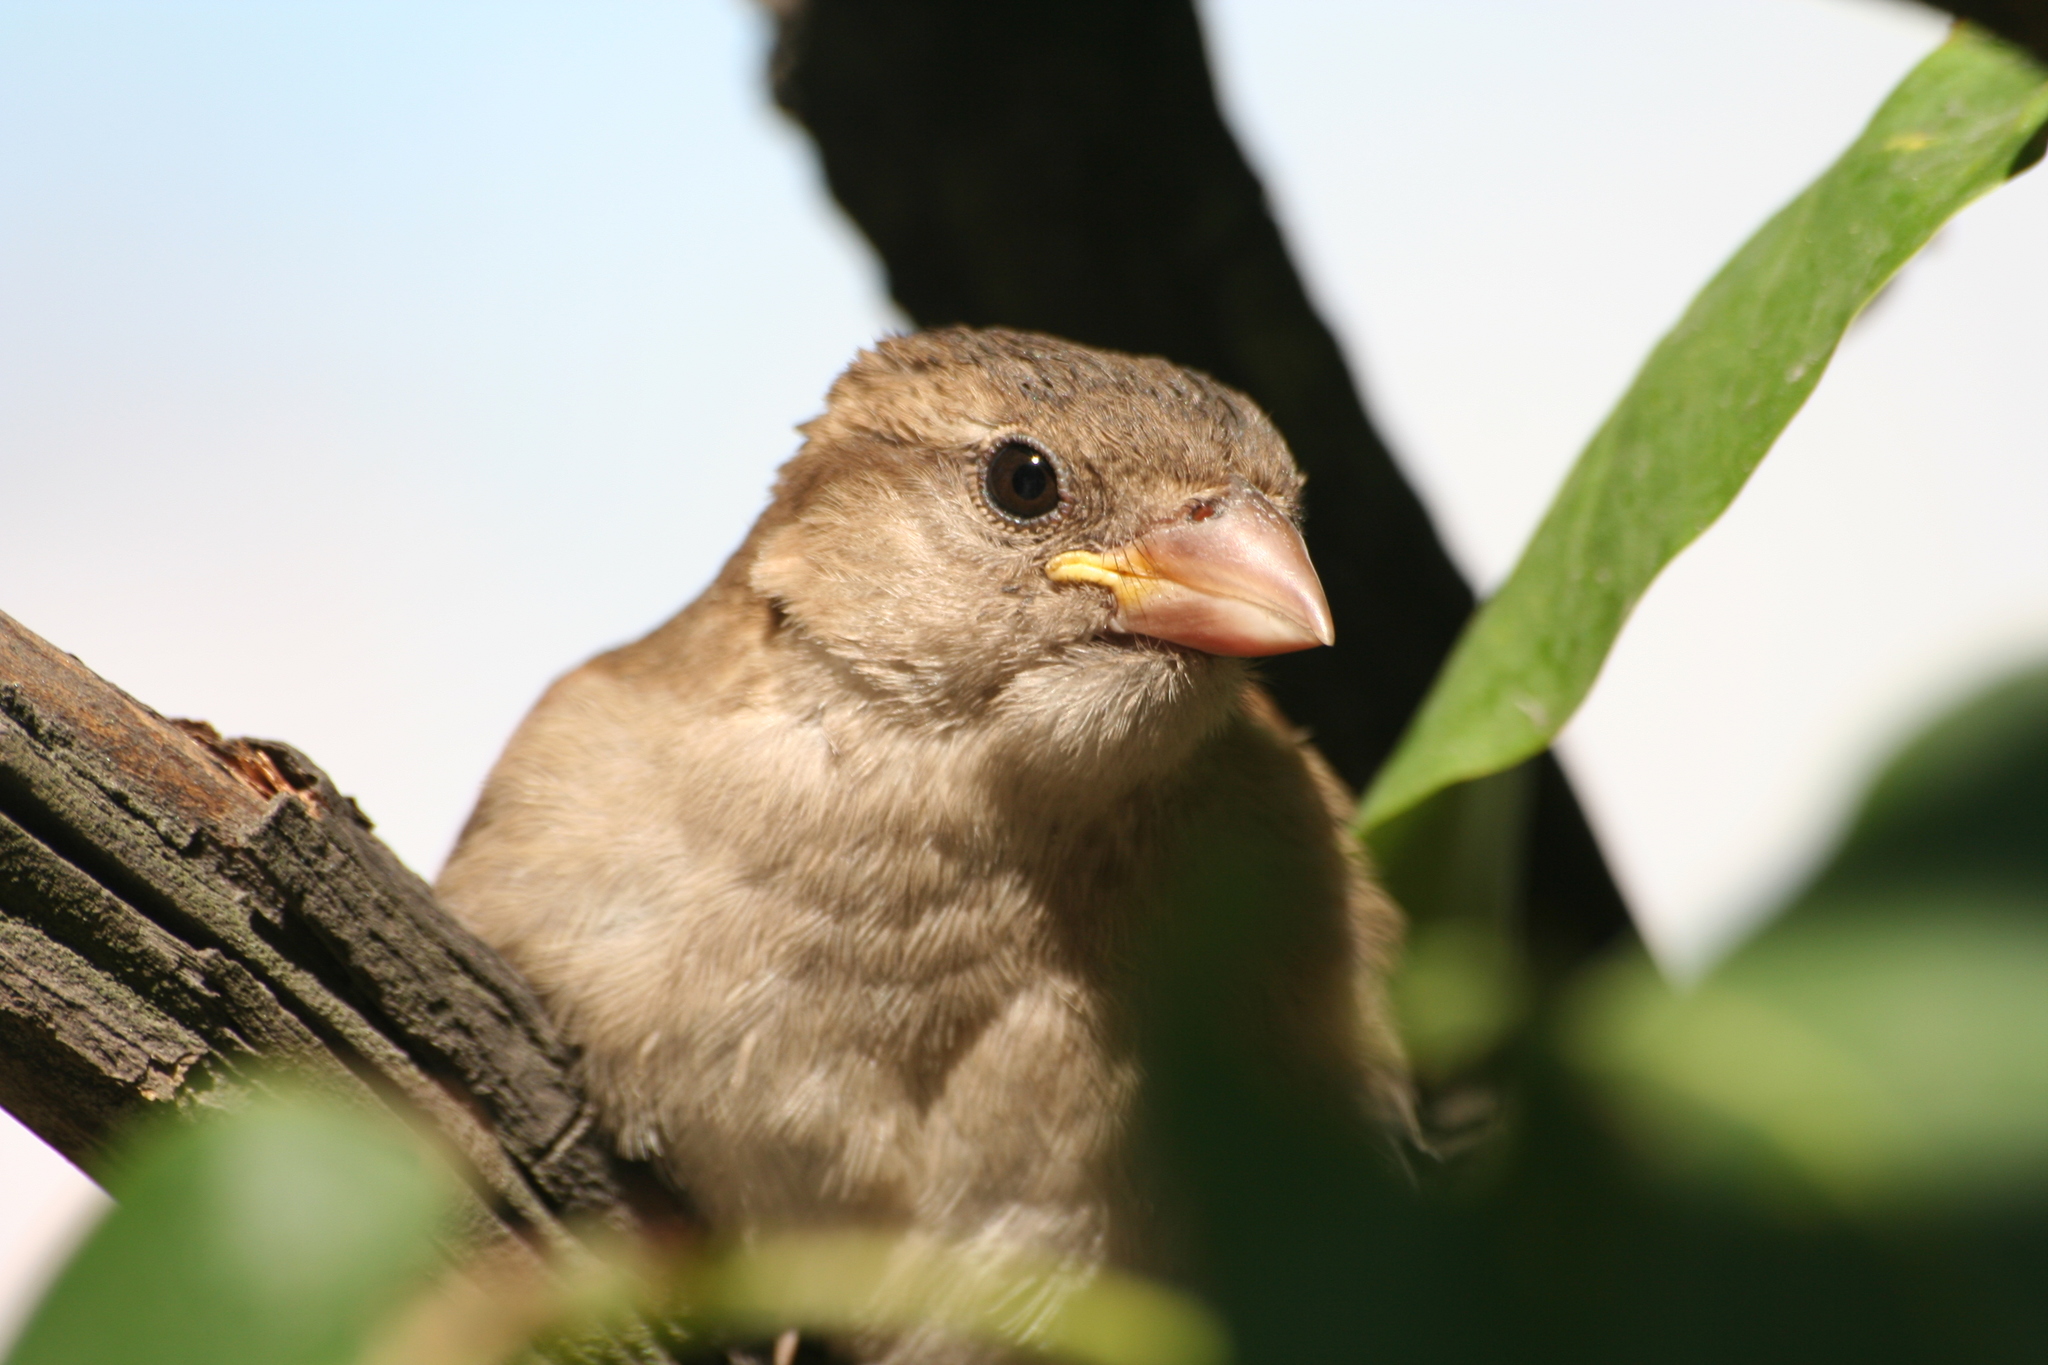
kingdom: Animalia
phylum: Chordata
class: Aves
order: Passeriformes
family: Passeridae
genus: Passer
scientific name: Passer domesticus
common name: House sparrow
